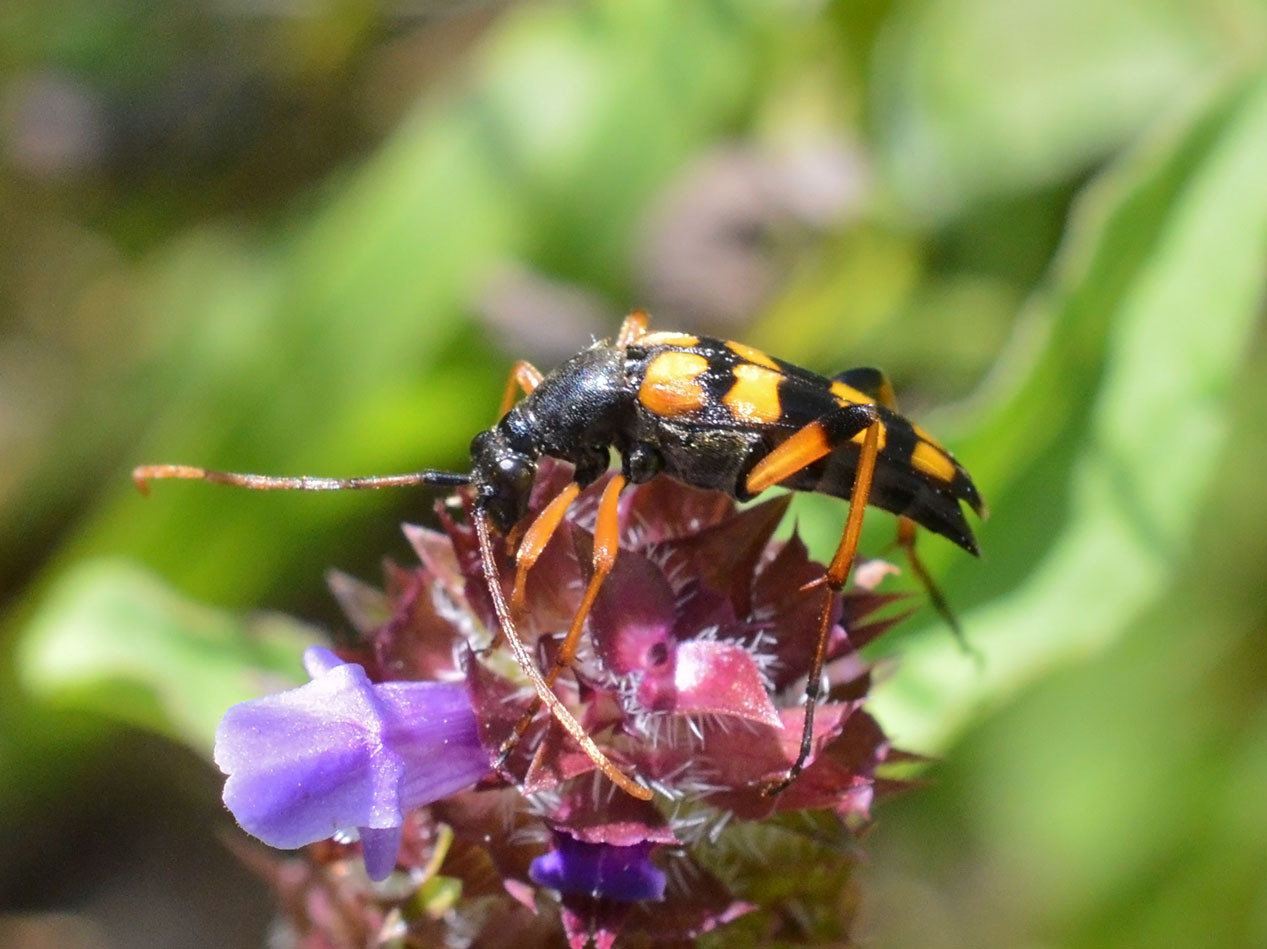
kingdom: Animalia
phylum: Arthropoda
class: Insecta
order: Coleoptera
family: Cerambycidae
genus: Strangalia
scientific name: Strangalia attenuata
